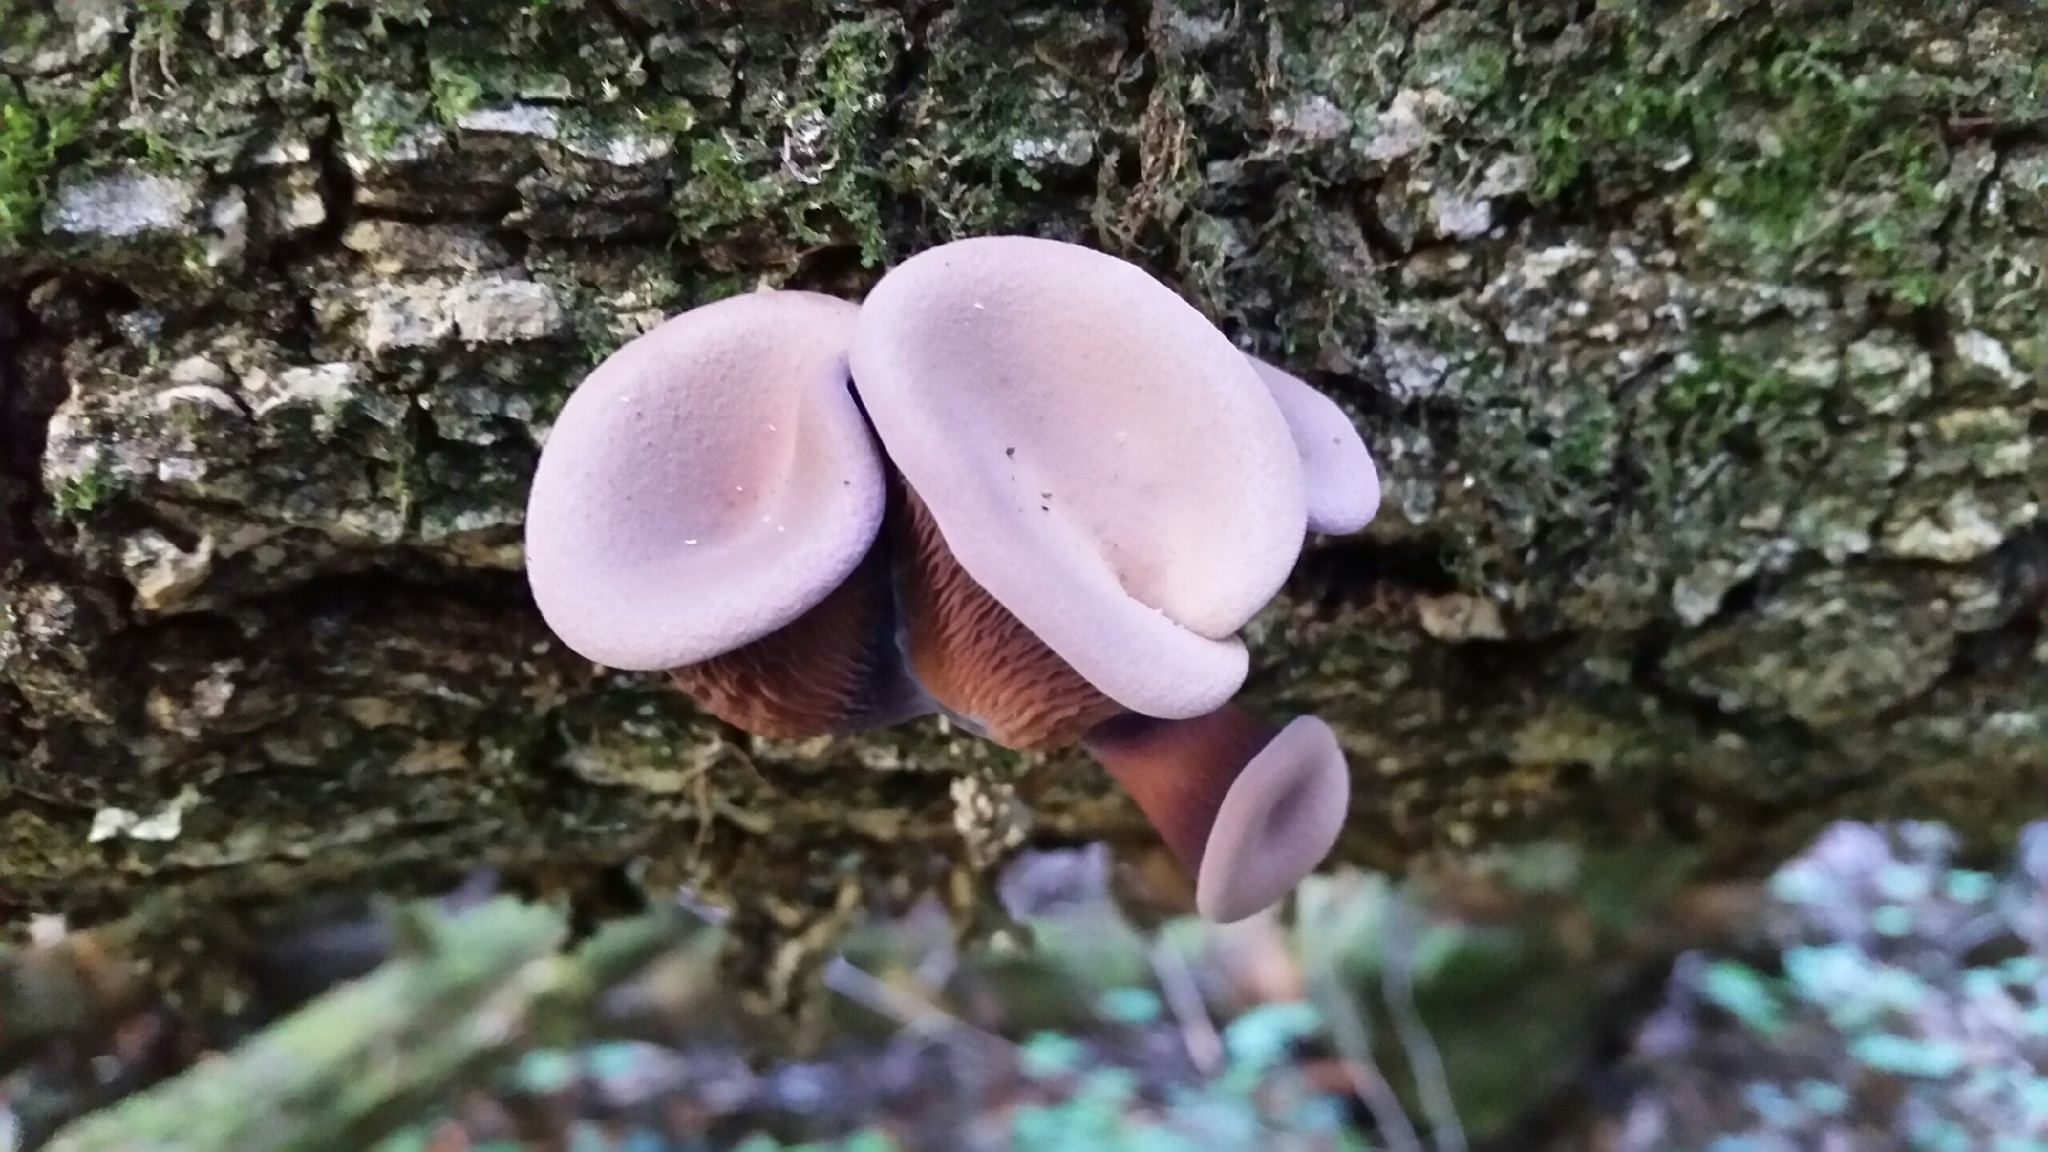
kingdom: Fungi
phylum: Basidiomycota
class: Agaricomycetes
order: Polyporales
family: Panaceae
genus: Panus
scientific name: Panus conchatus
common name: Lilac oysterling
